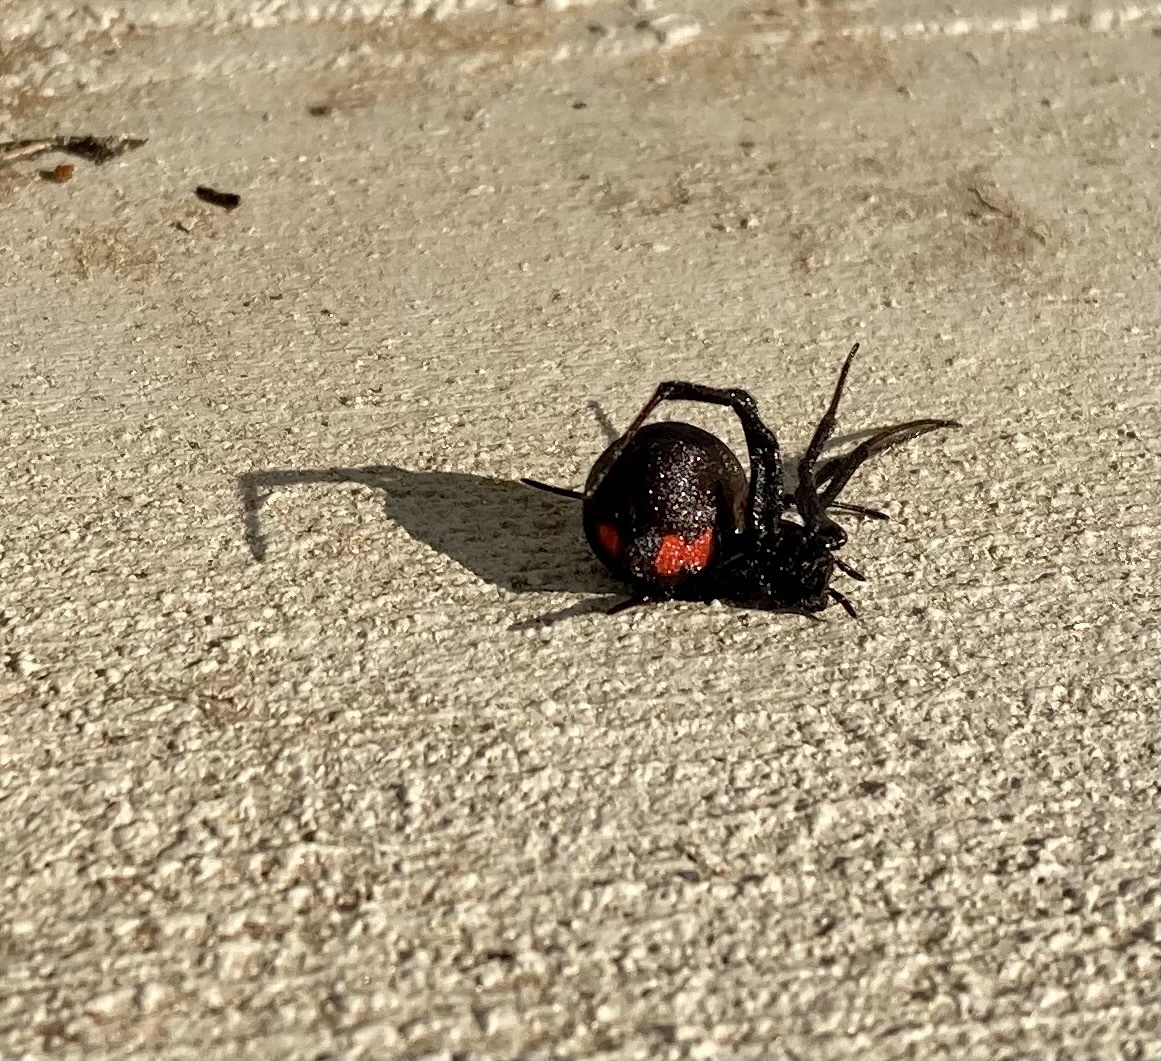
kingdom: Animalia
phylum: Arthropoda
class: Arachnida
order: Araneae
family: Theridiidae
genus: Latrodectus
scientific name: Latrodectus mactans
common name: Cobweb spiders
